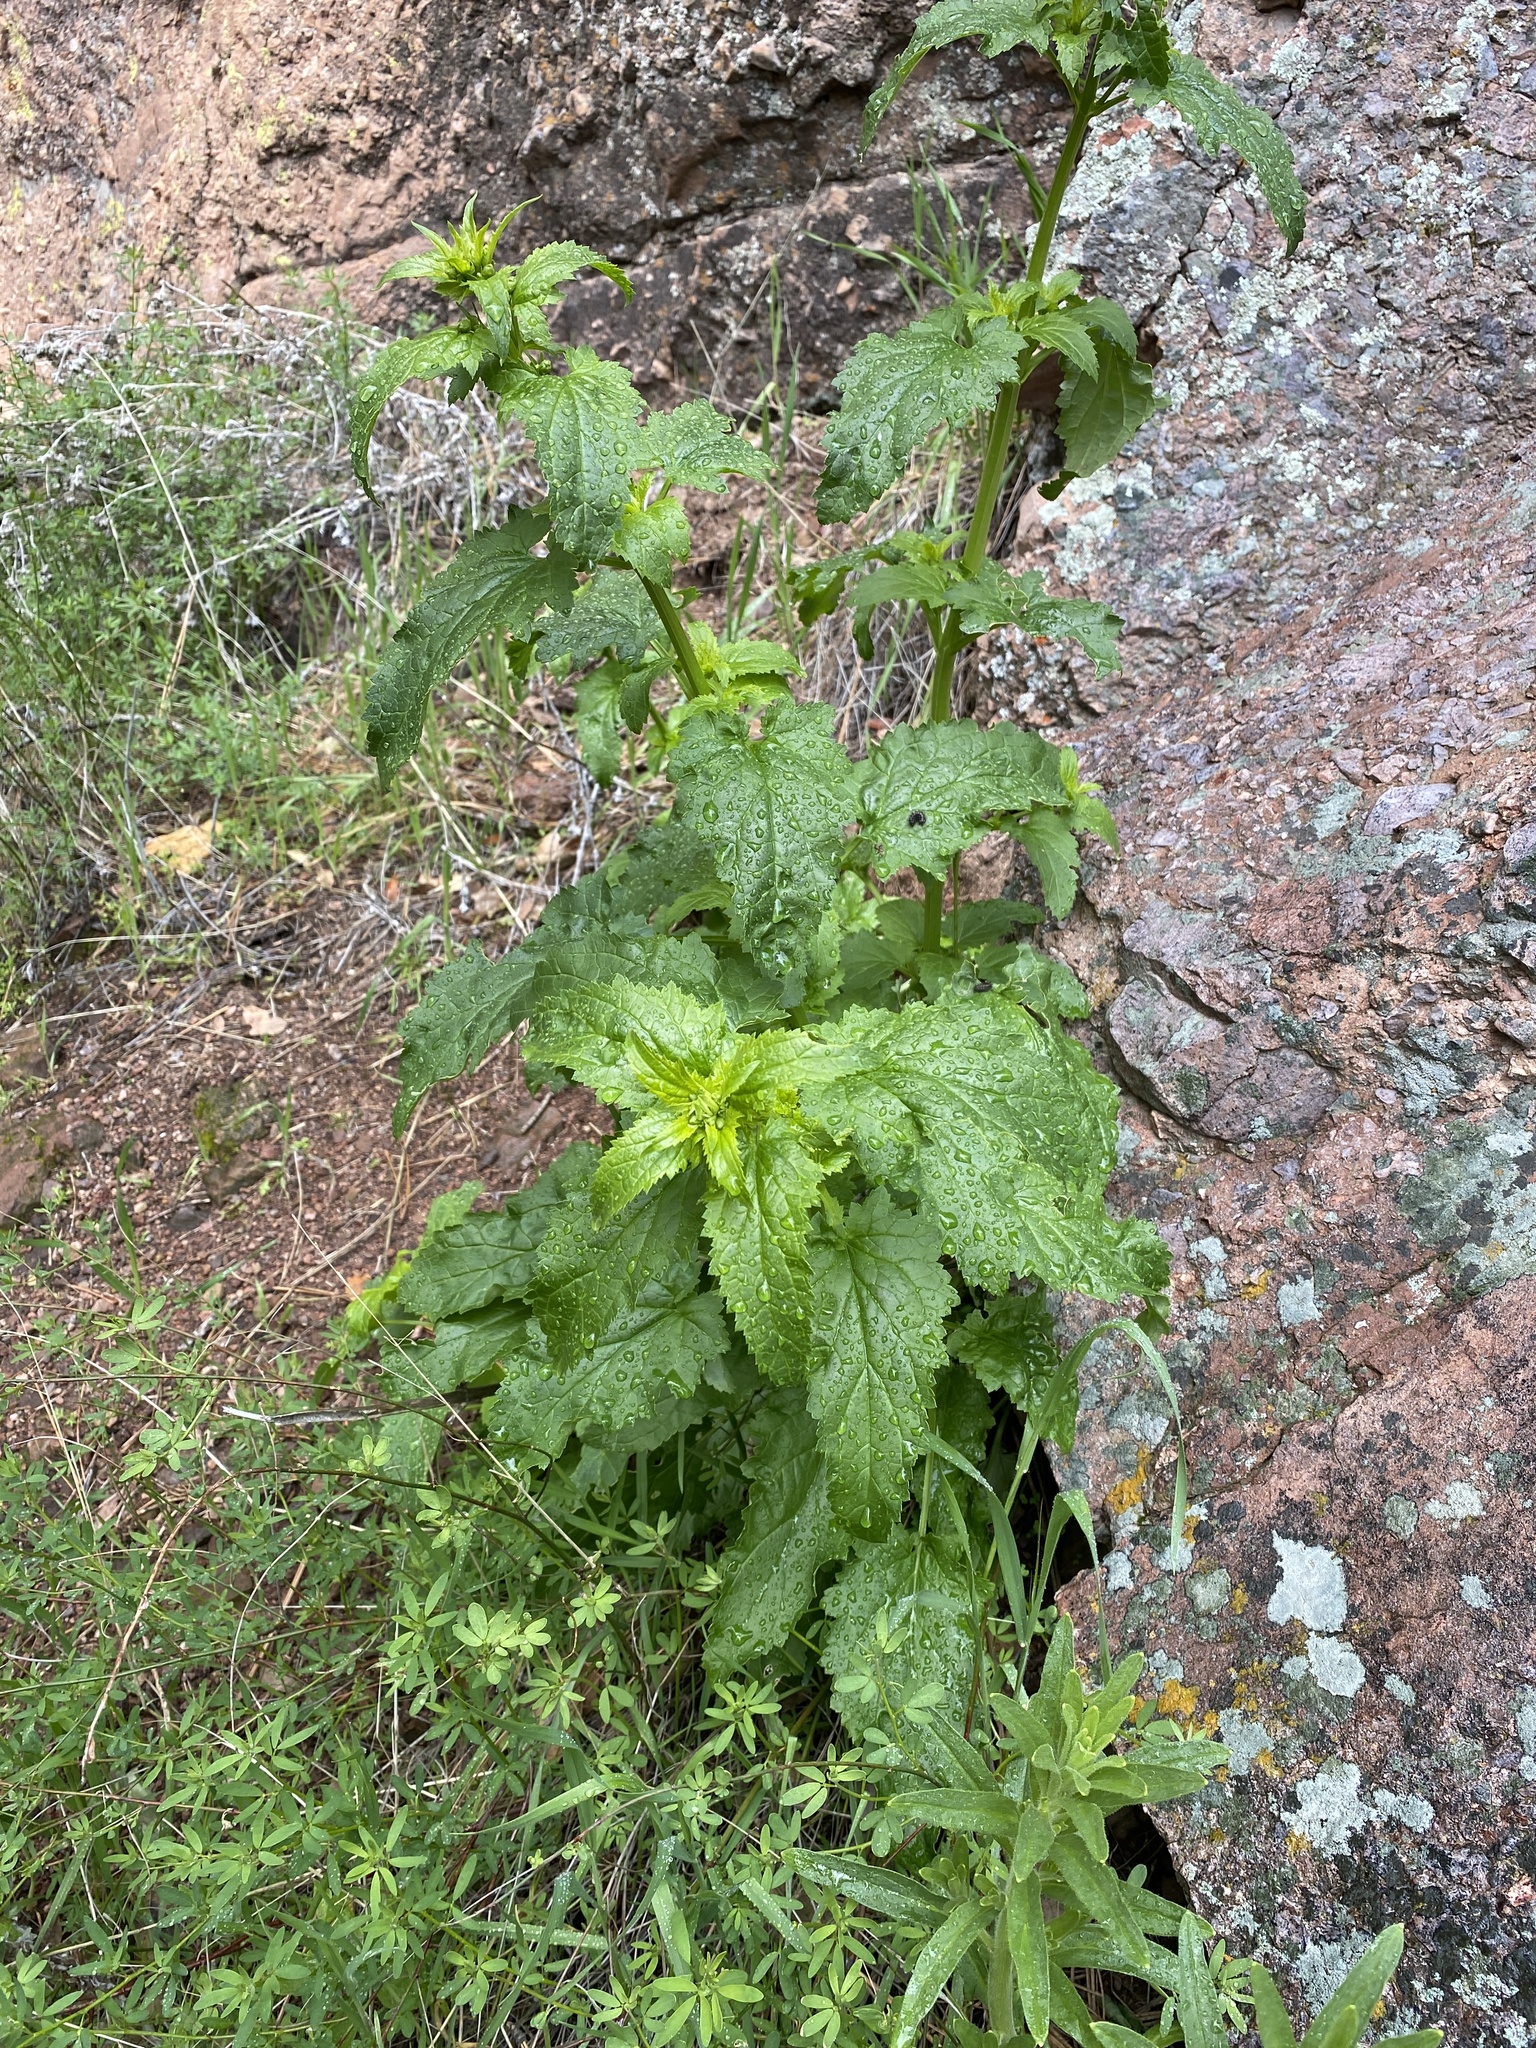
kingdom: Plantae
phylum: Tracheophyta
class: Magnoliopsida
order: Lamiales
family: Scrophulariaceae
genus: Scrophularia
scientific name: Scrophularia californica
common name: California figwort
